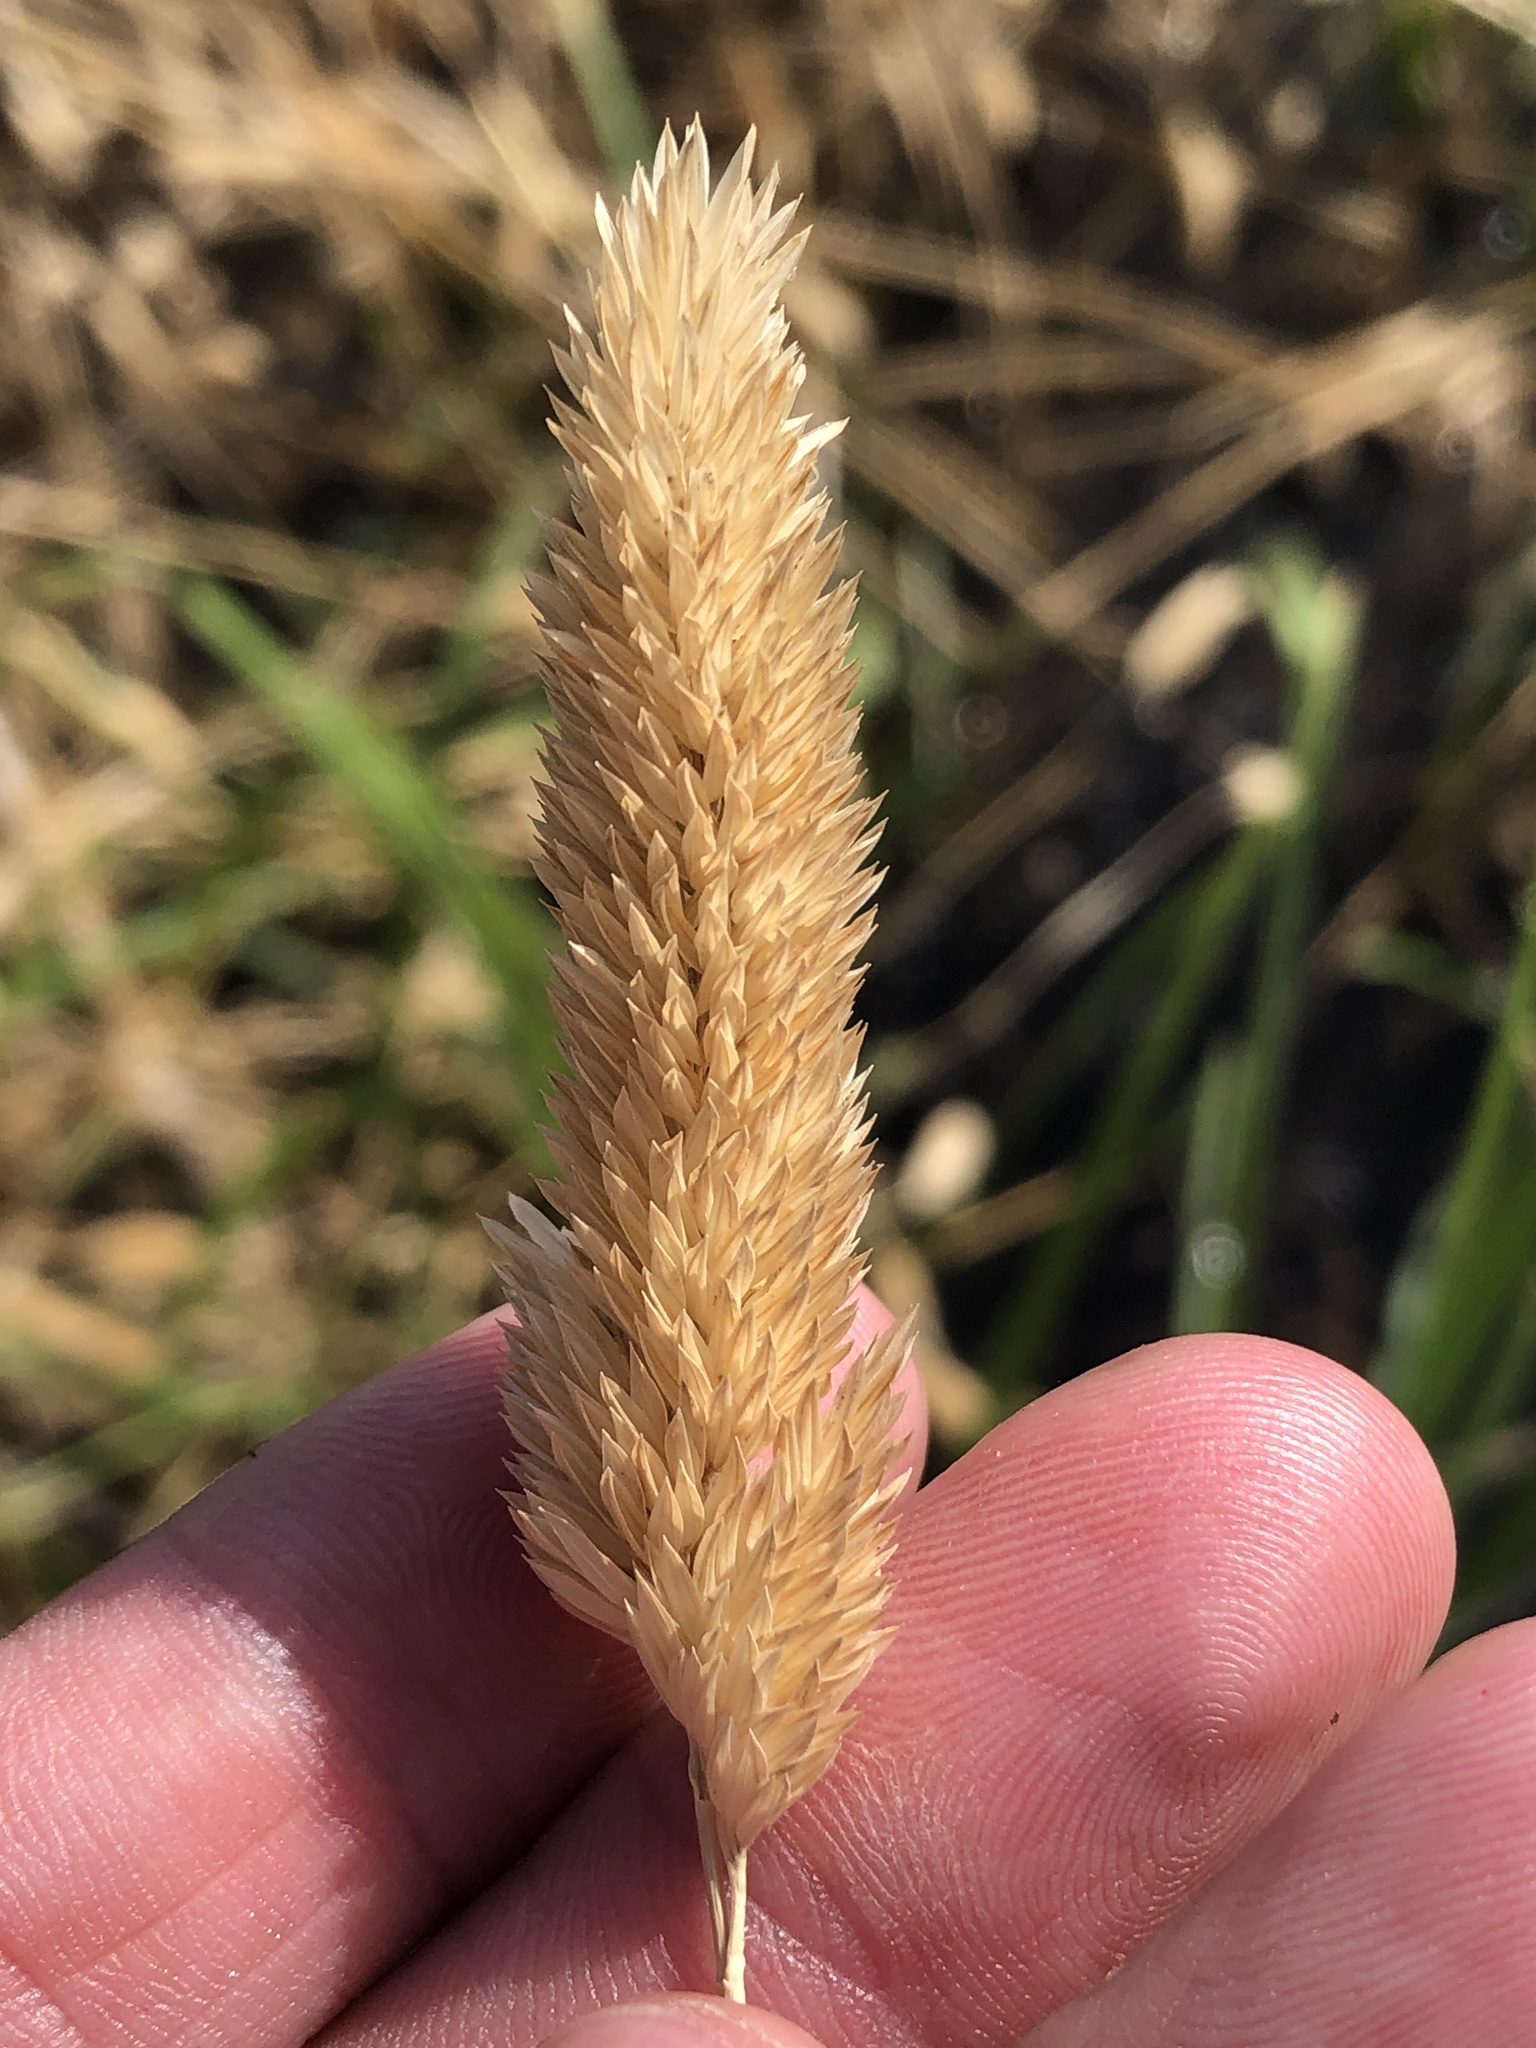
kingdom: Plantae
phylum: Tracheophyta
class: Liliopsida
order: Poales
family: Poaceae
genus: Phalaris
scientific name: Phalaris caroliniana
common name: May grass
